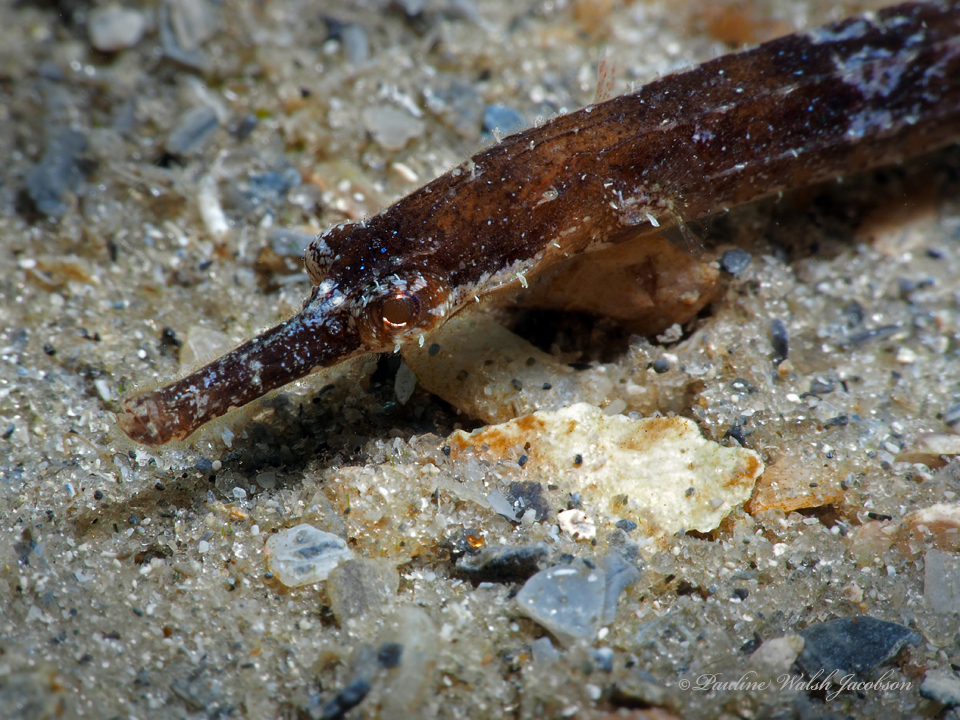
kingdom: Animalia
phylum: Chordata
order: Syngnathiformes
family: Syngnathidae
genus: Cosmocampus
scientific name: Cosmocampus elucens
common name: Poey's pipefish
